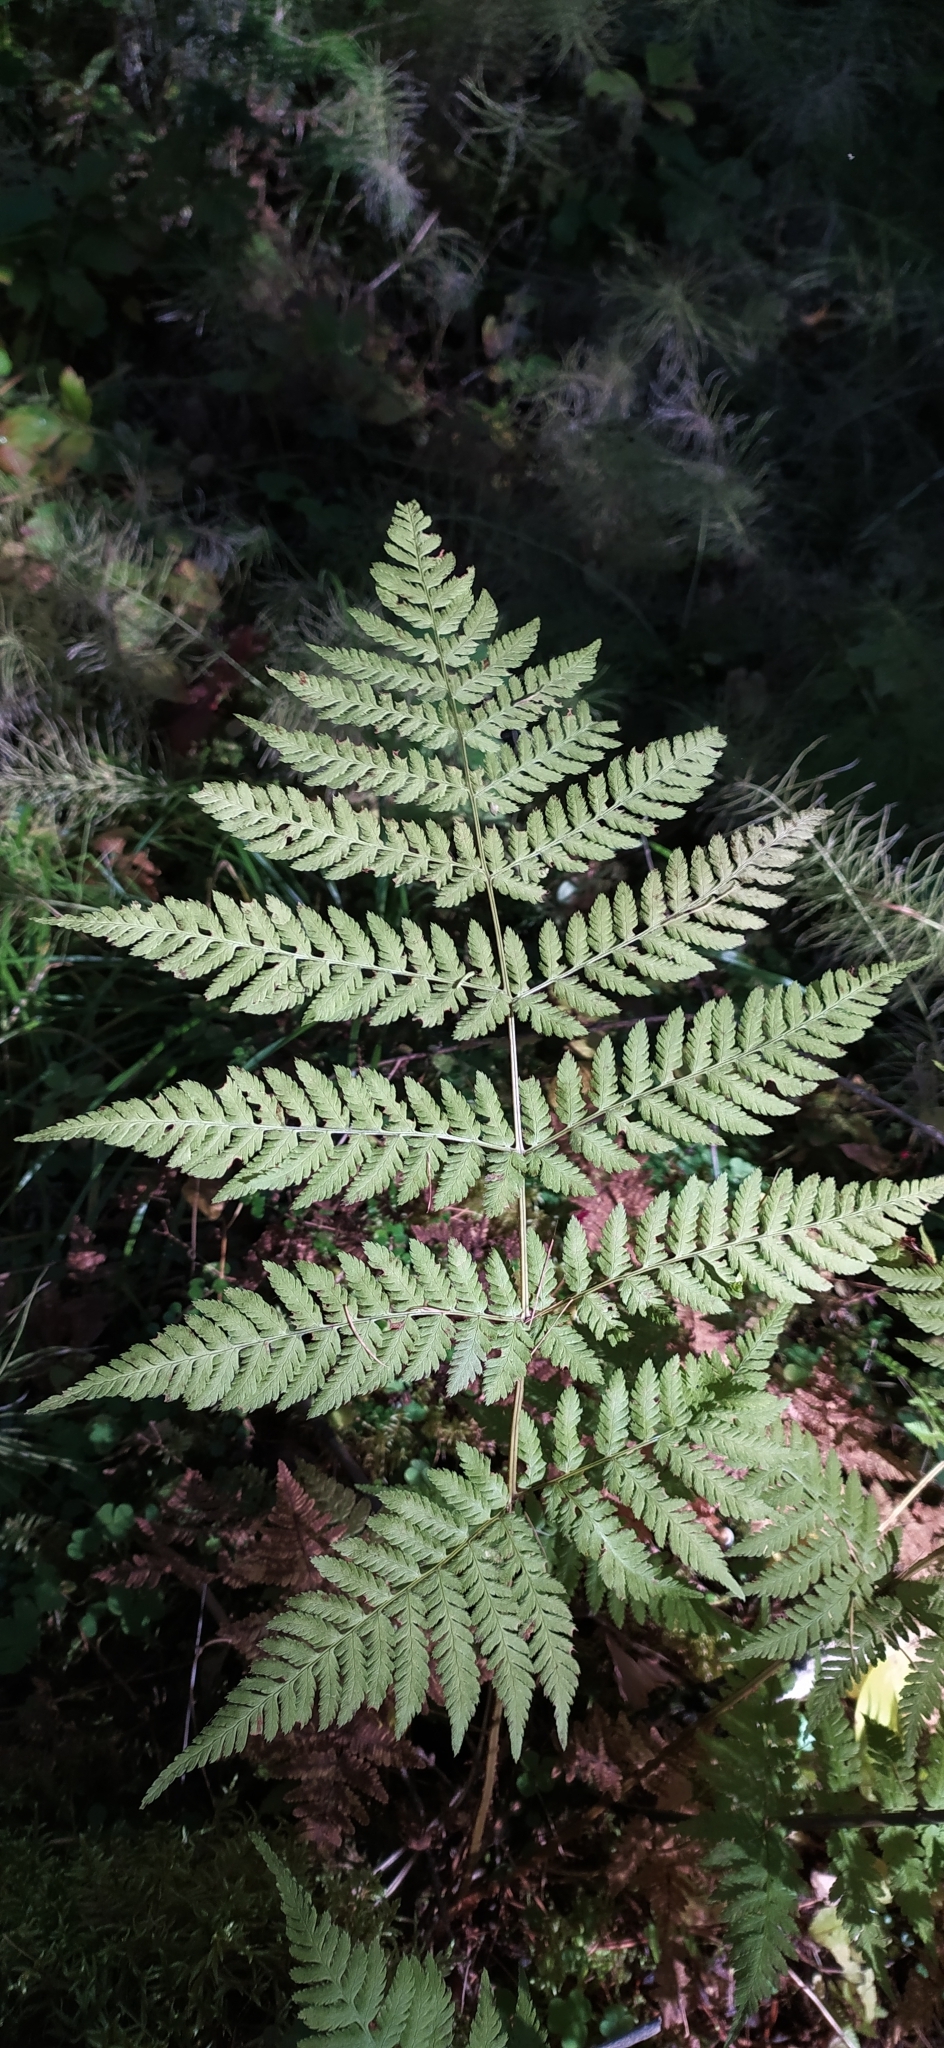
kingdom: Plantae
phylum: Tracheophyta
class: Polypodiopsida
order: Polypodiales
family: Dryopteridaceae
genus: Dryopteris
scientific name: Dryopteris expansa
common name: Northern buckler fern
